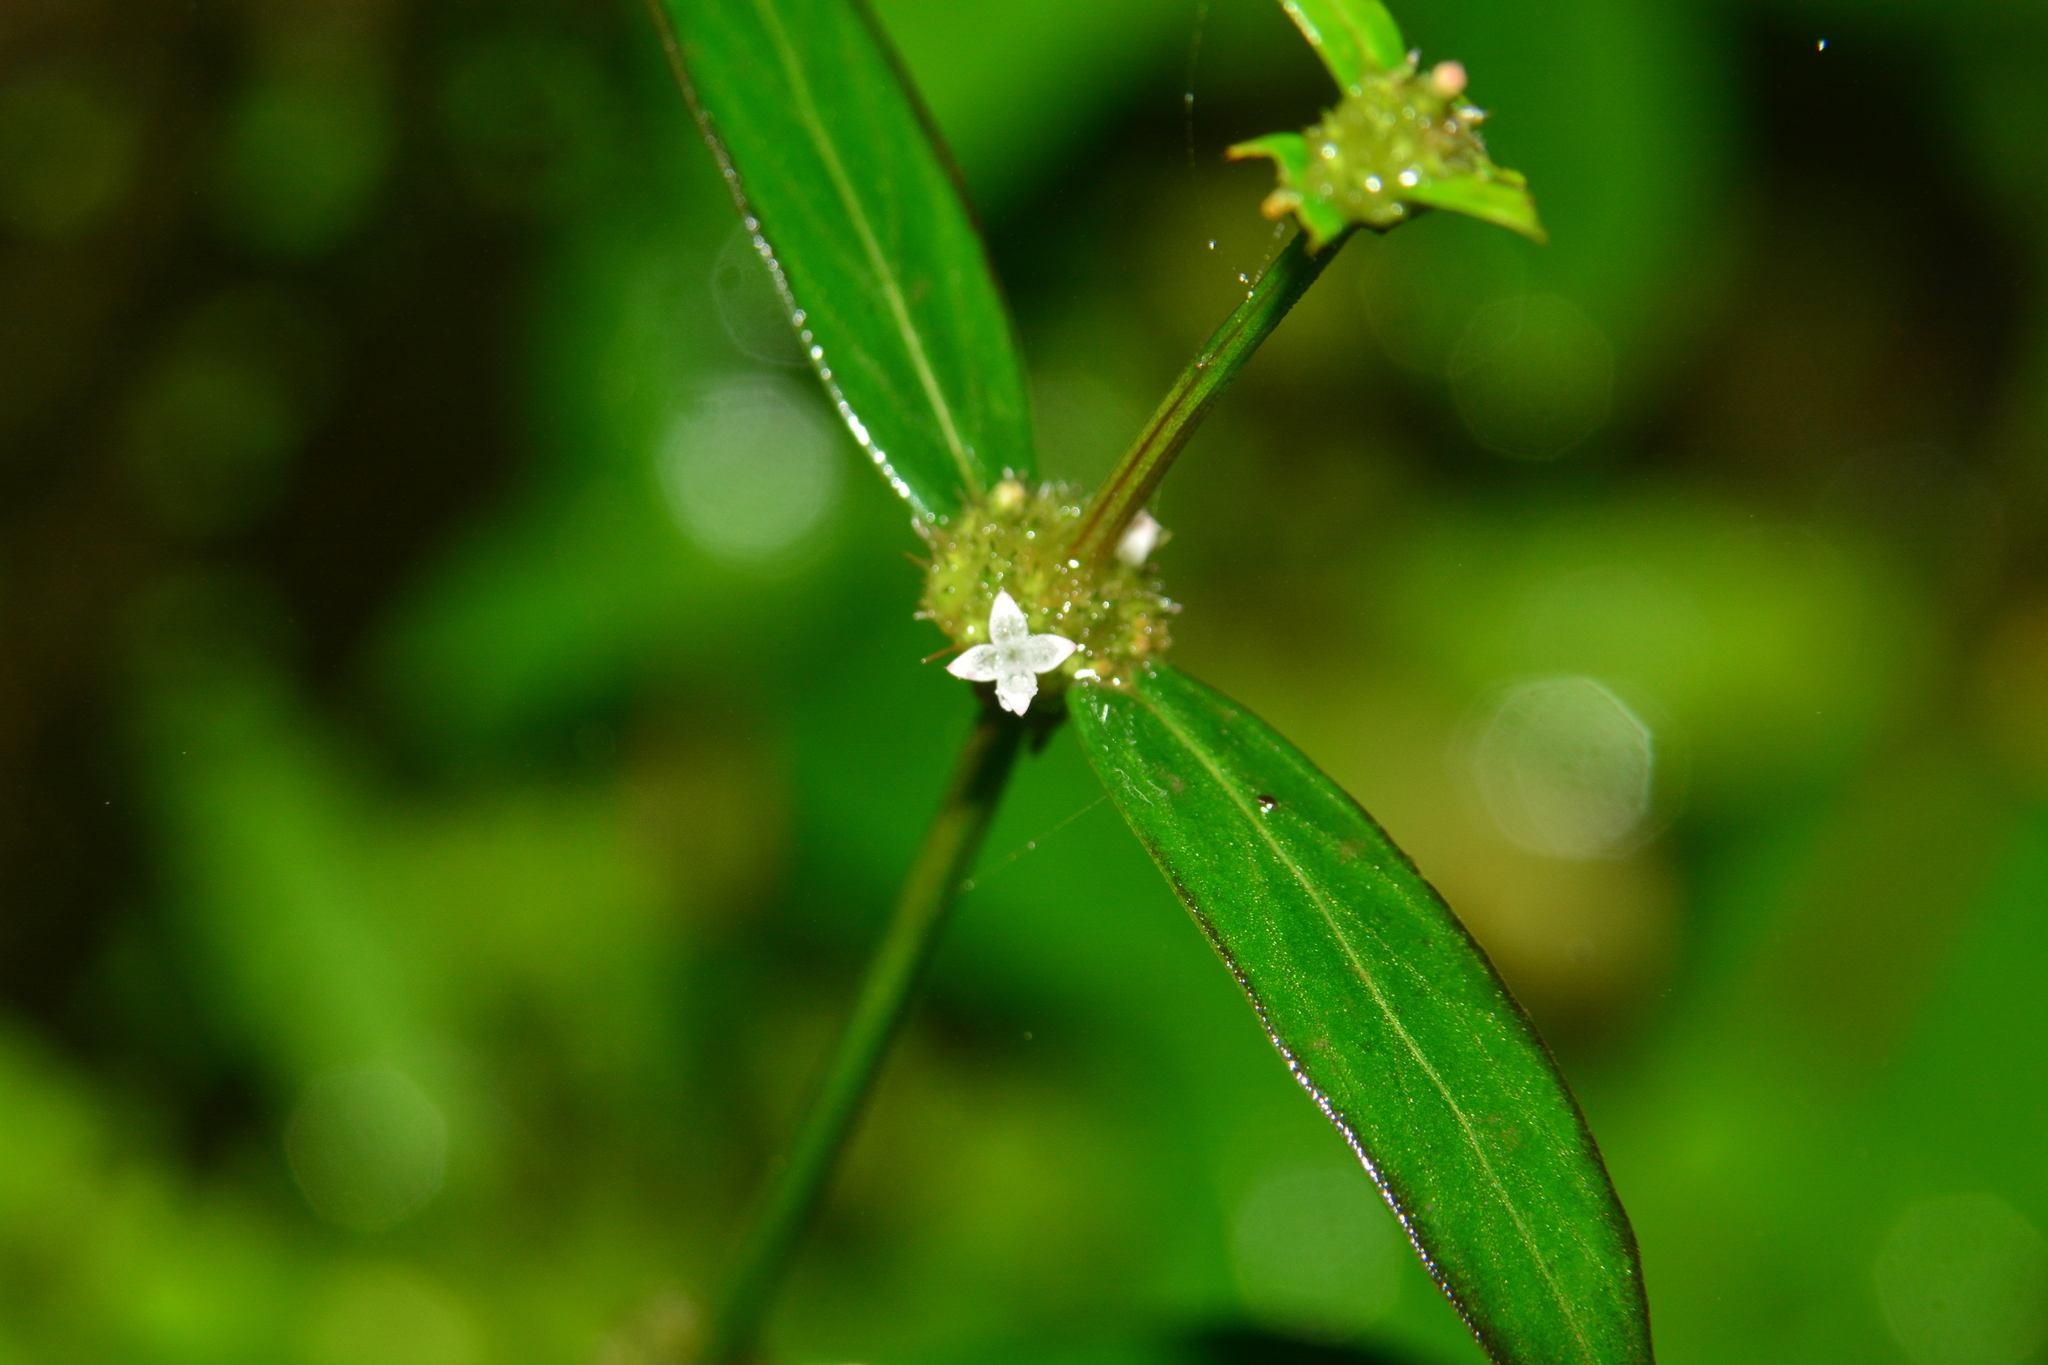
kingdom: Plantae
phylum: Tracheophyta
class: Magnoliopsida
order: Gentianales
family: Rubiaceae
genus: Spermacoce
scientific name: Spermacoce remota
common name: Woodland false buttonweed
